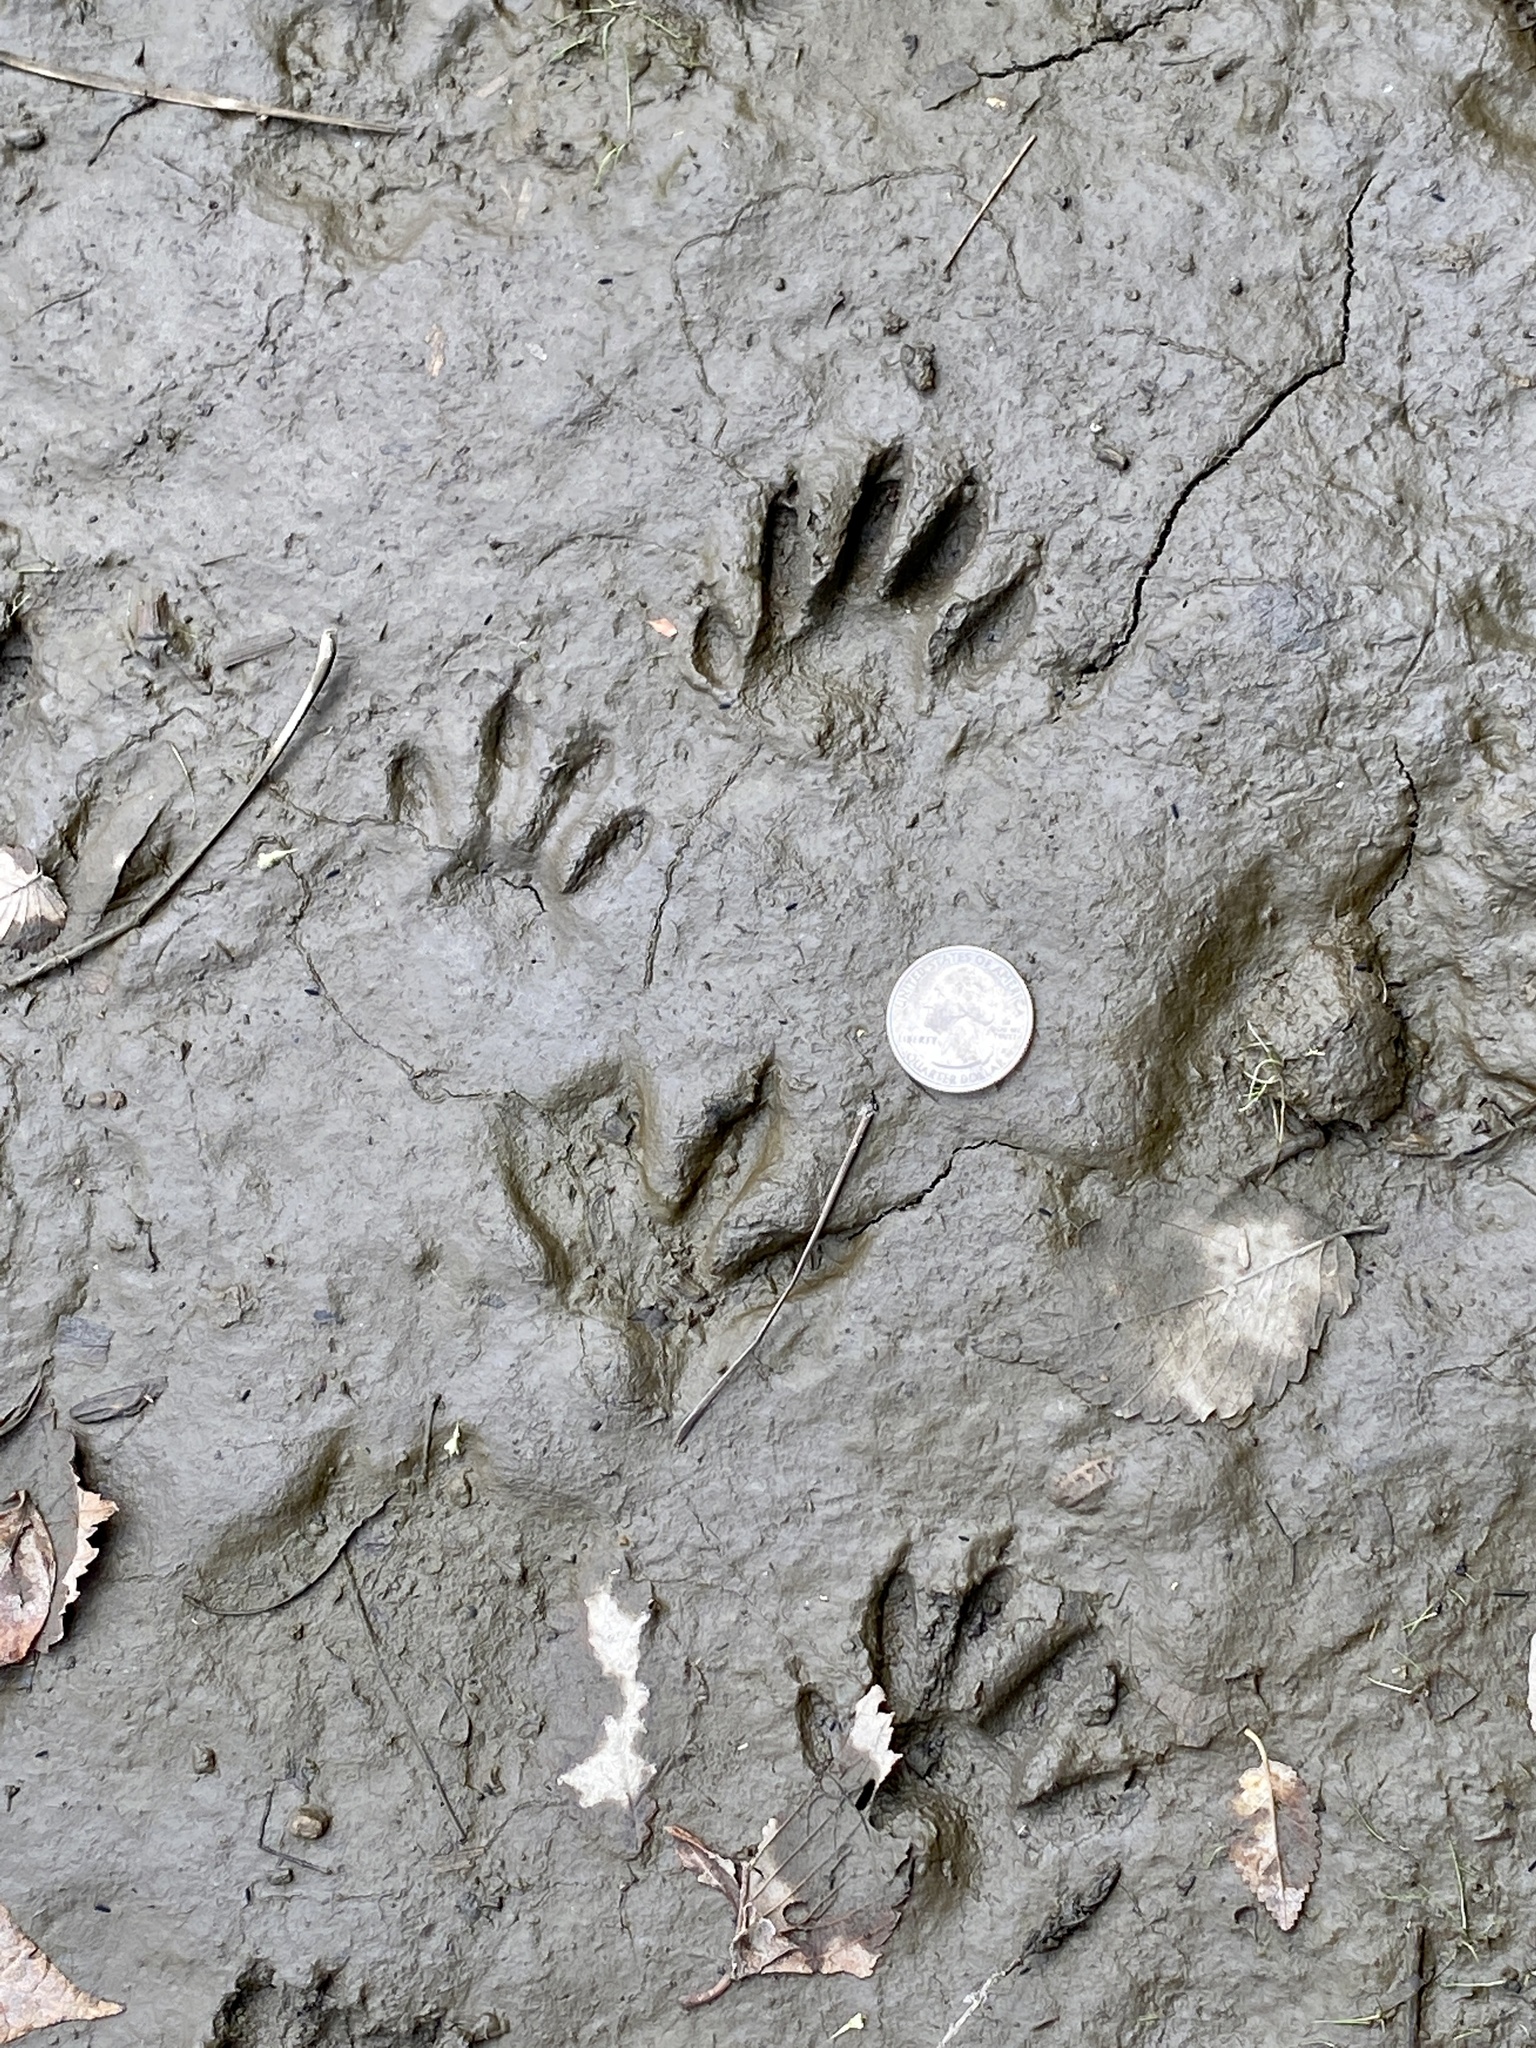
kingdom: Animalia
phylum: Chordata
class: Mammalia
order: Carnivora
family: Procyonidae
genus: Procyon
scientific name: Procyon lotor
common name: Raccoon
